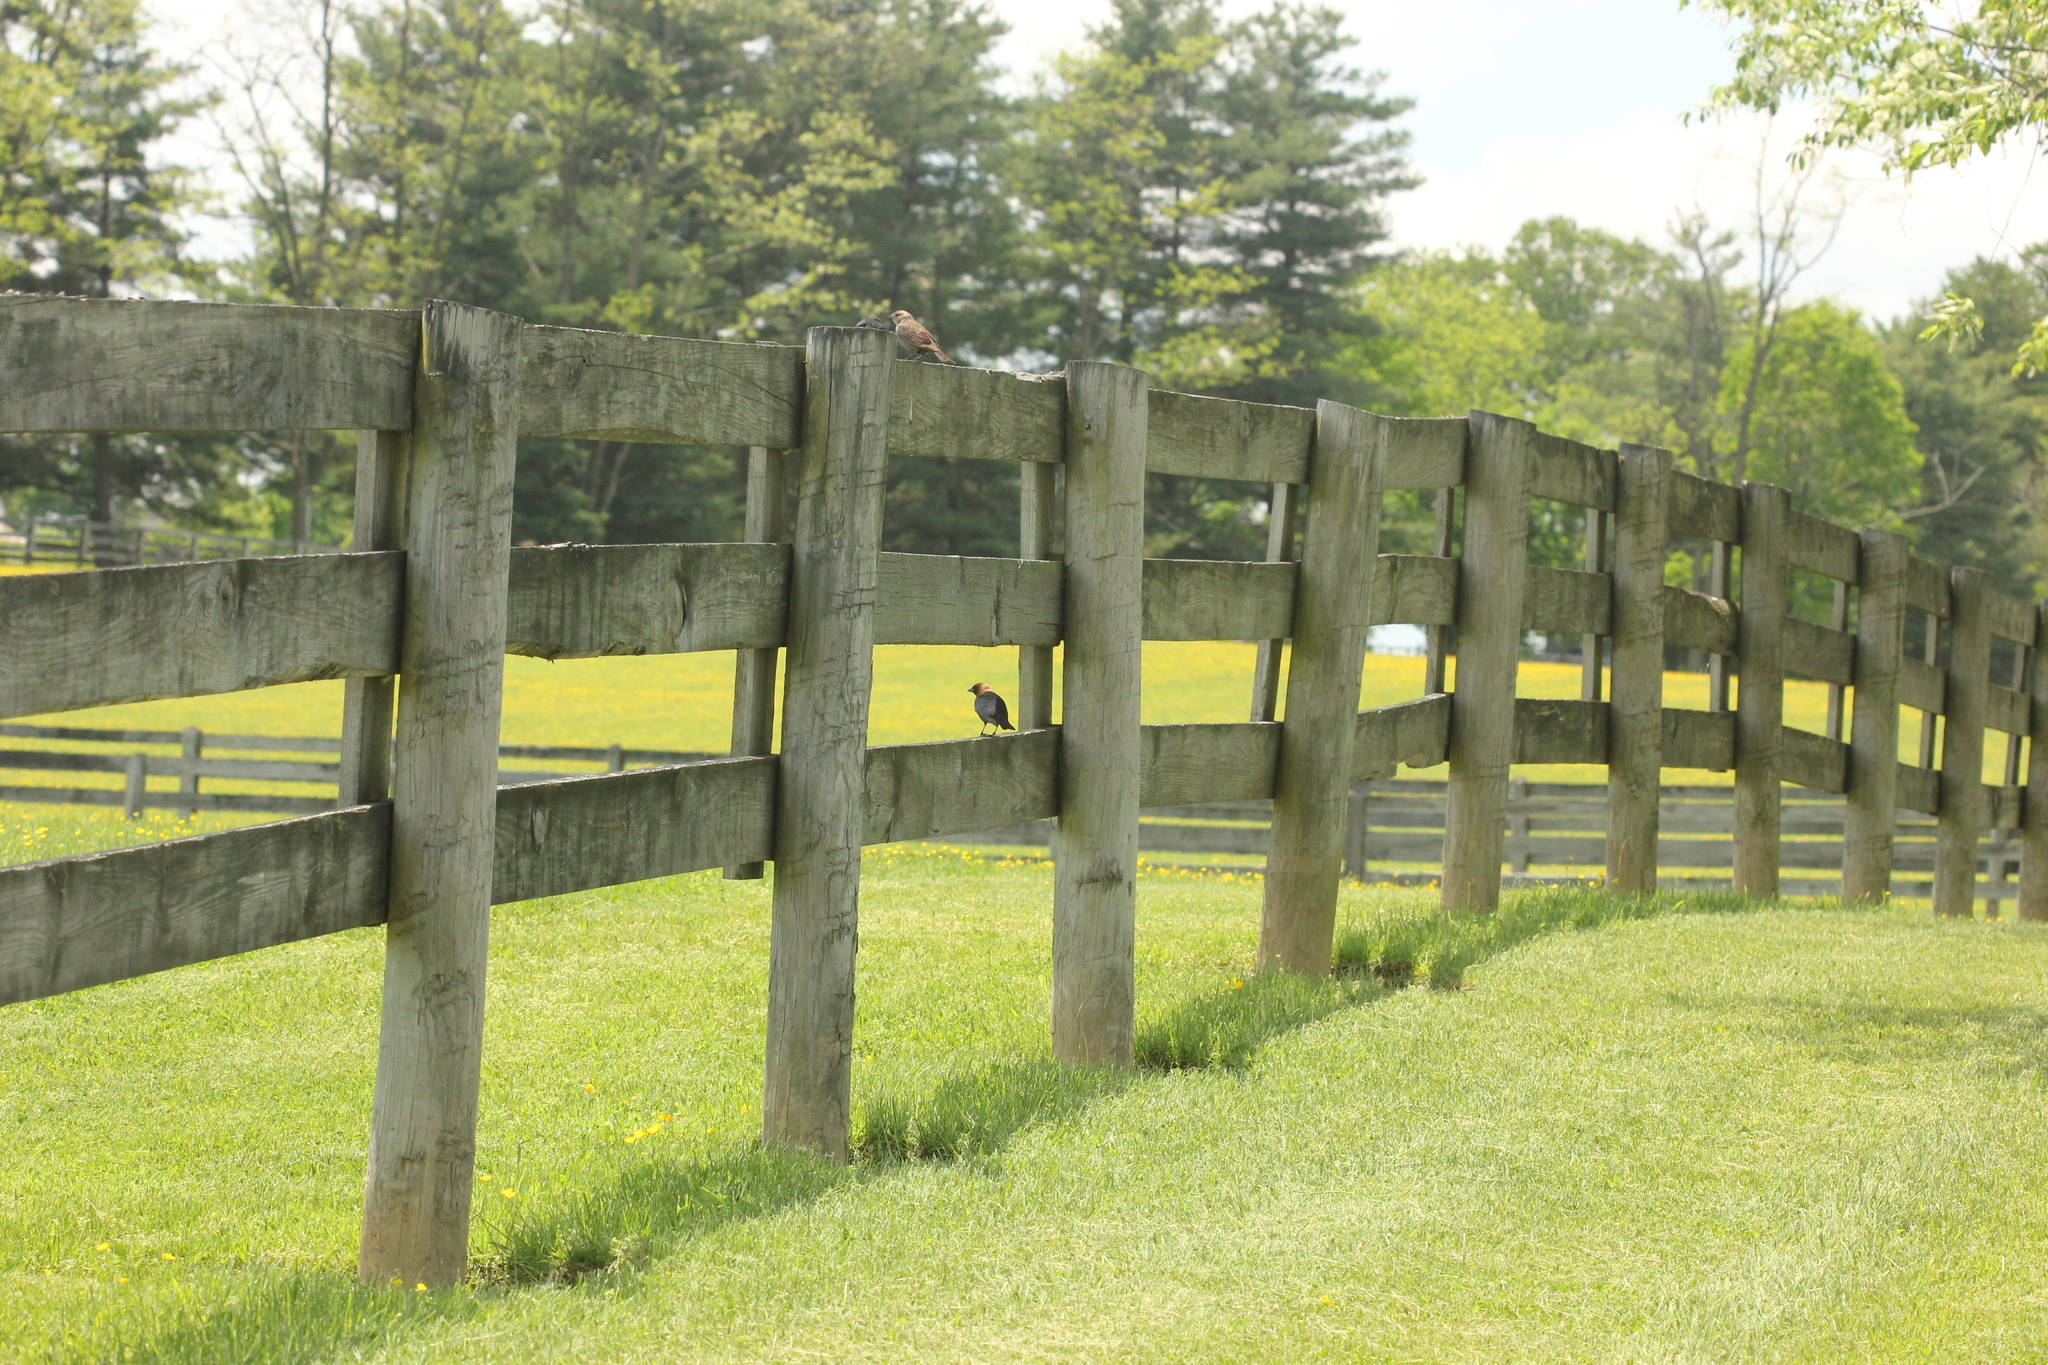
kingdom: Animalia
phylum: Chordata
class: Aves
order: Passeriformes
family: Icteridae
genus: Molothrus
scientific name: Molothrus ater
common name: Brown-headed cowbird
